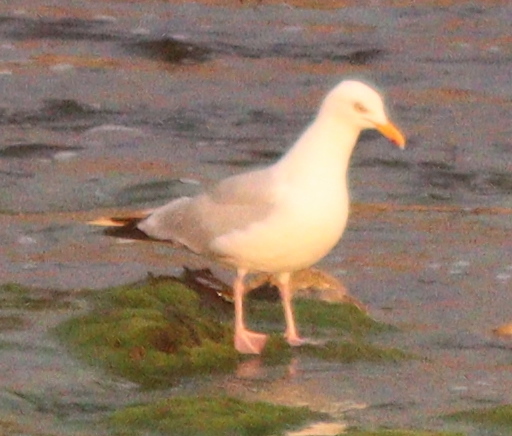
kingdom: Animalia
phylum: Chordata
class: Aves
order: Charadriiformes
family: Laridae
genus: Larus
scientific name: Larus argentatus
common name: Herring gull
